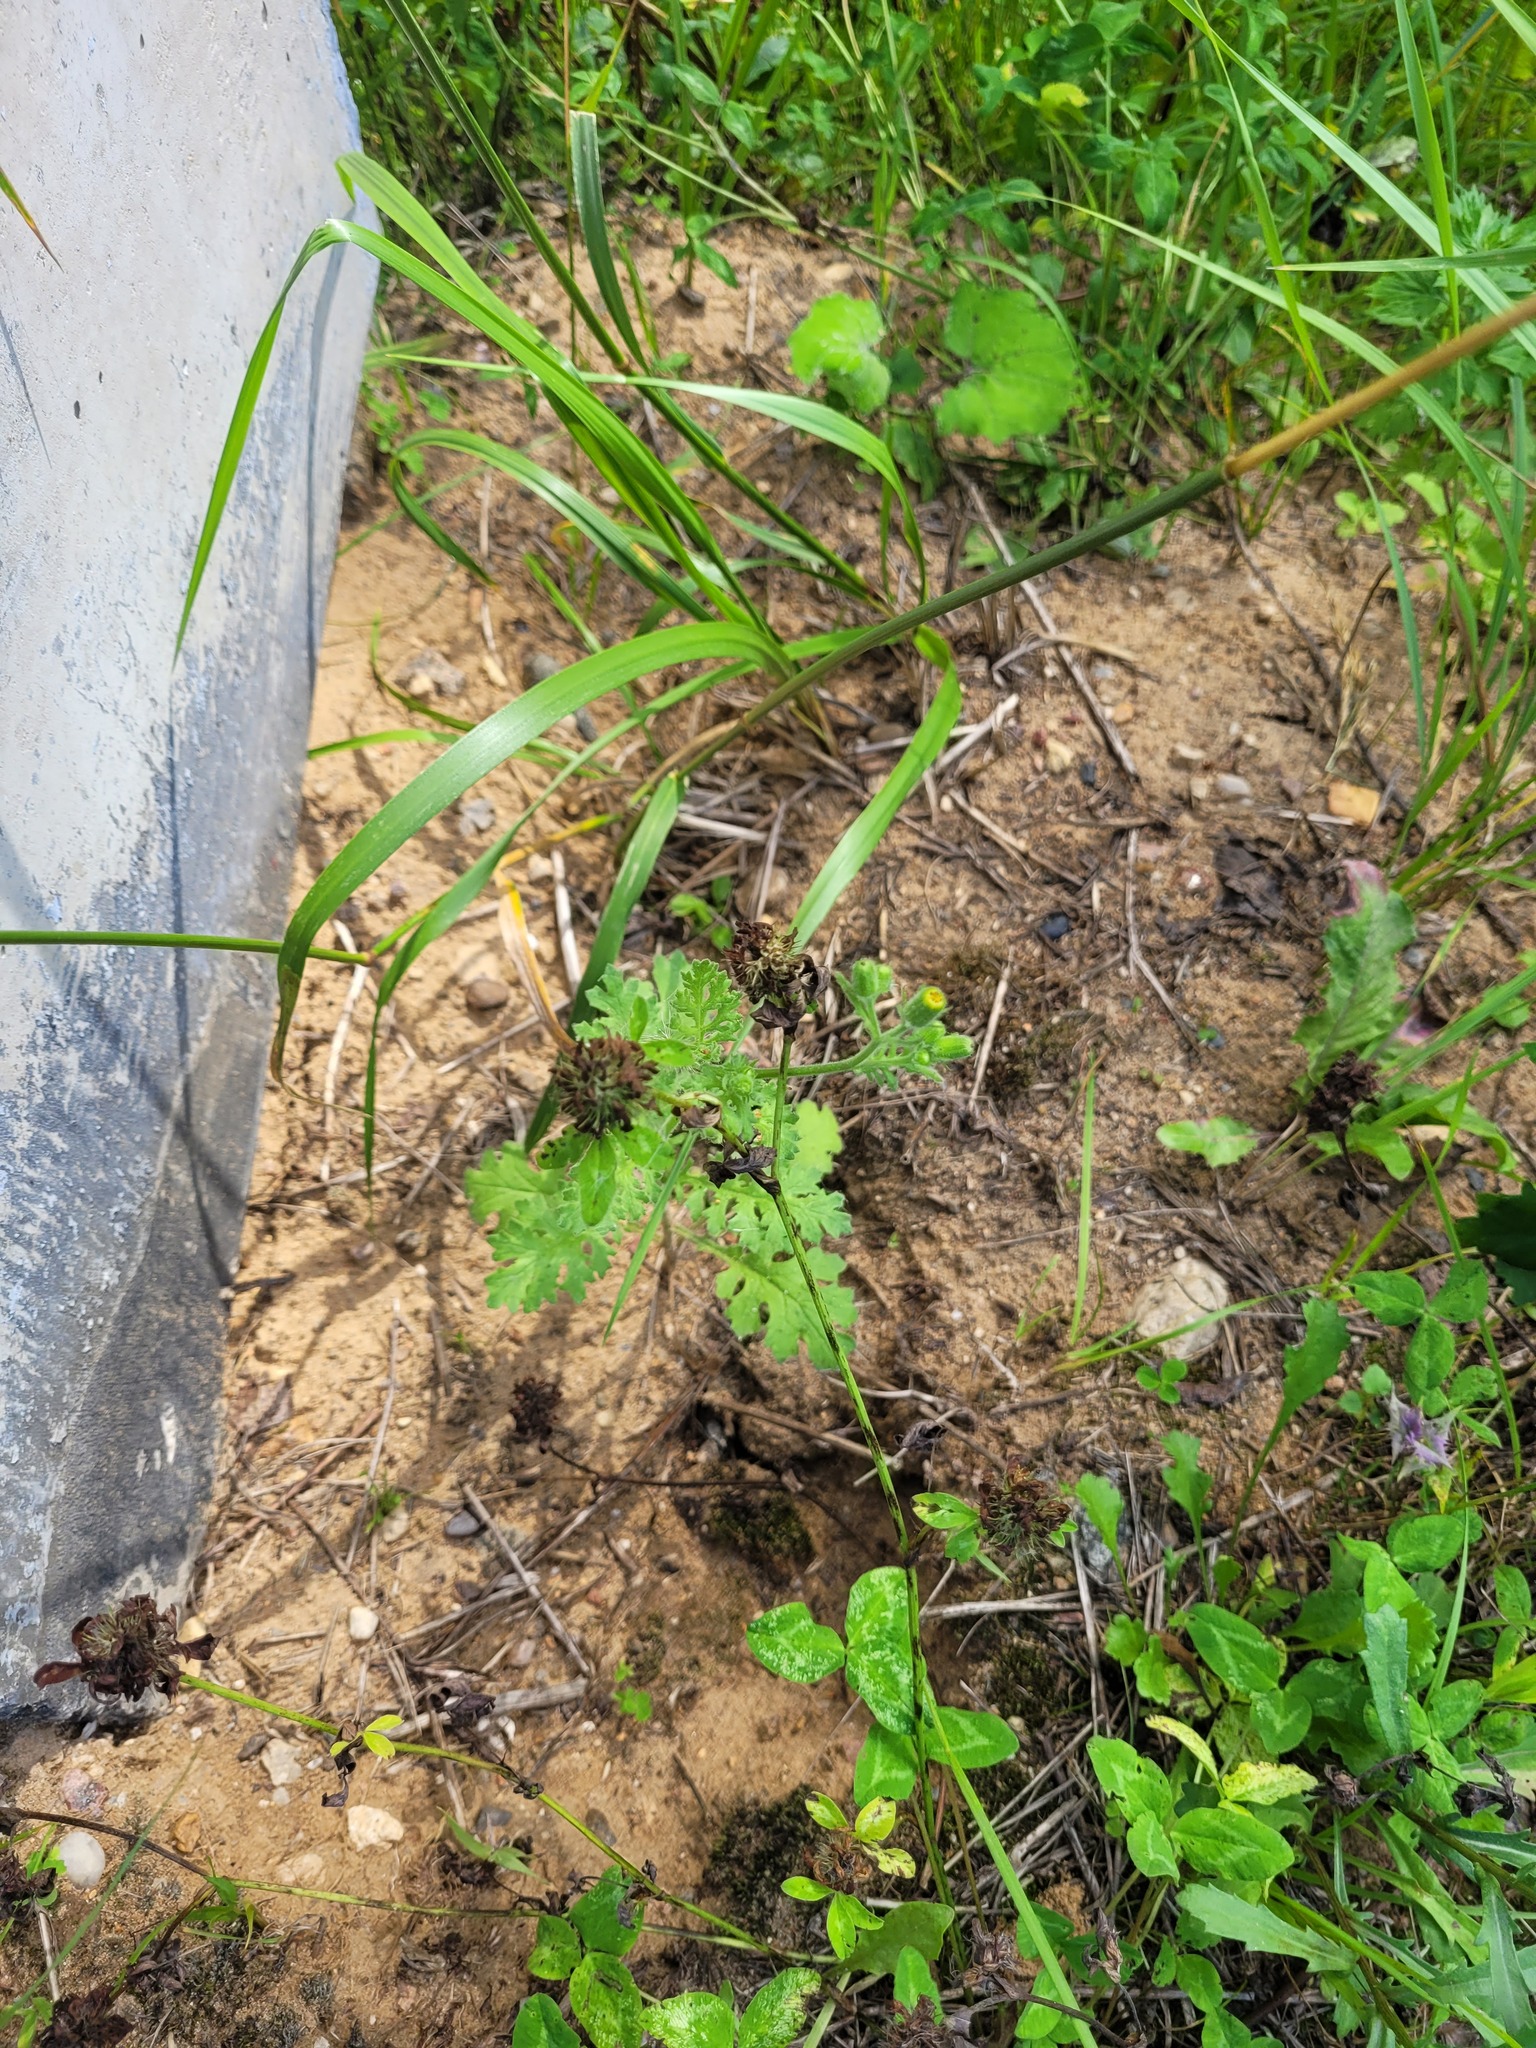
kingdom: Plantae
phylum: Tracheophyta
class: Magnoliopsida
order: Asterales
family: Asteraceae
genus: Senecio
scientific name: Senecio viscosus
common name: Sticky groundsel
